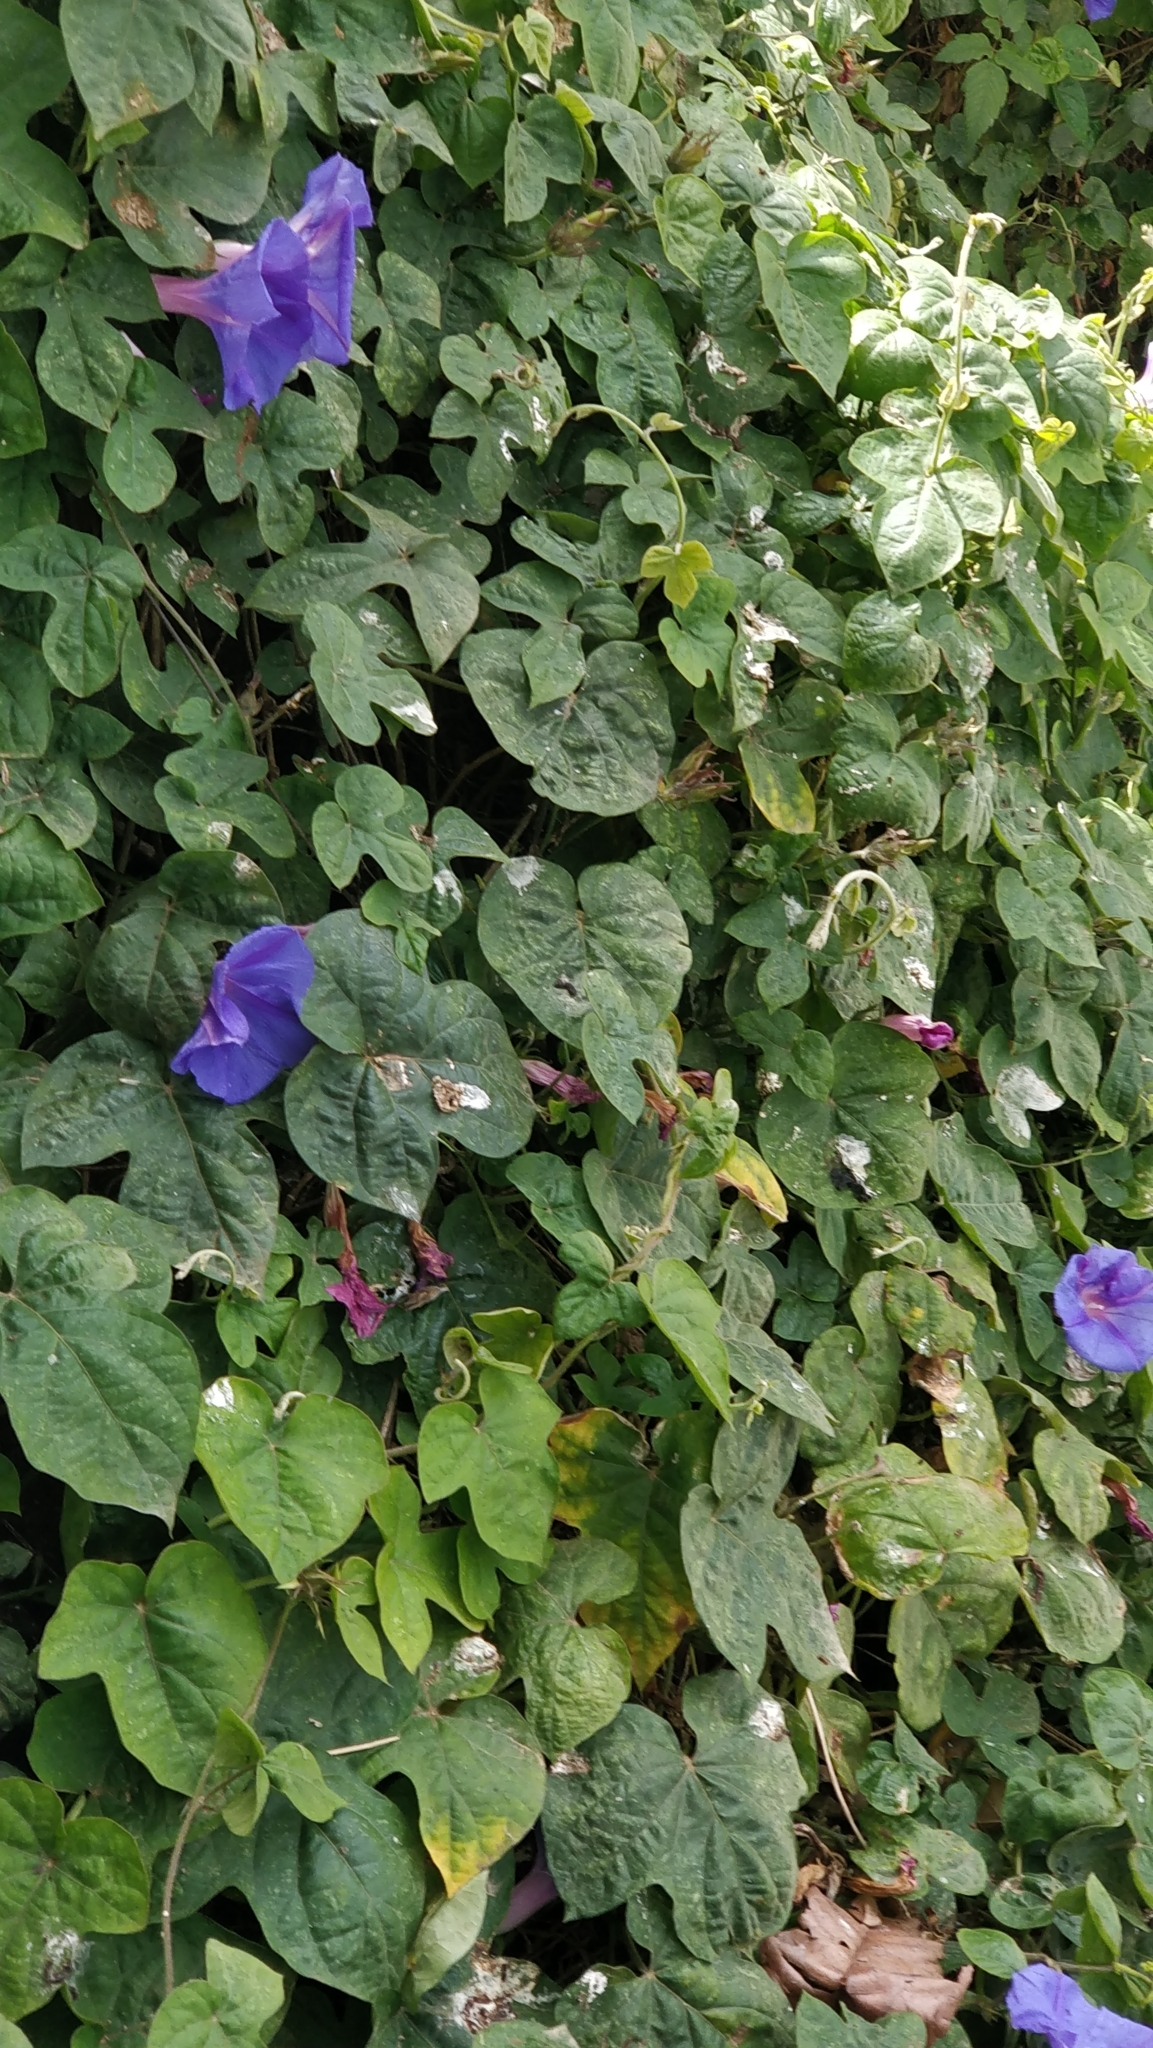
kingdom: Plantae
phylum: Tracheophyta
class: Magnoliopsida
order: Solanales
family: Convolvulaceae
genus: Ipomoea
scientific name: Ipomoea indica
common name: Blue dawnflower
